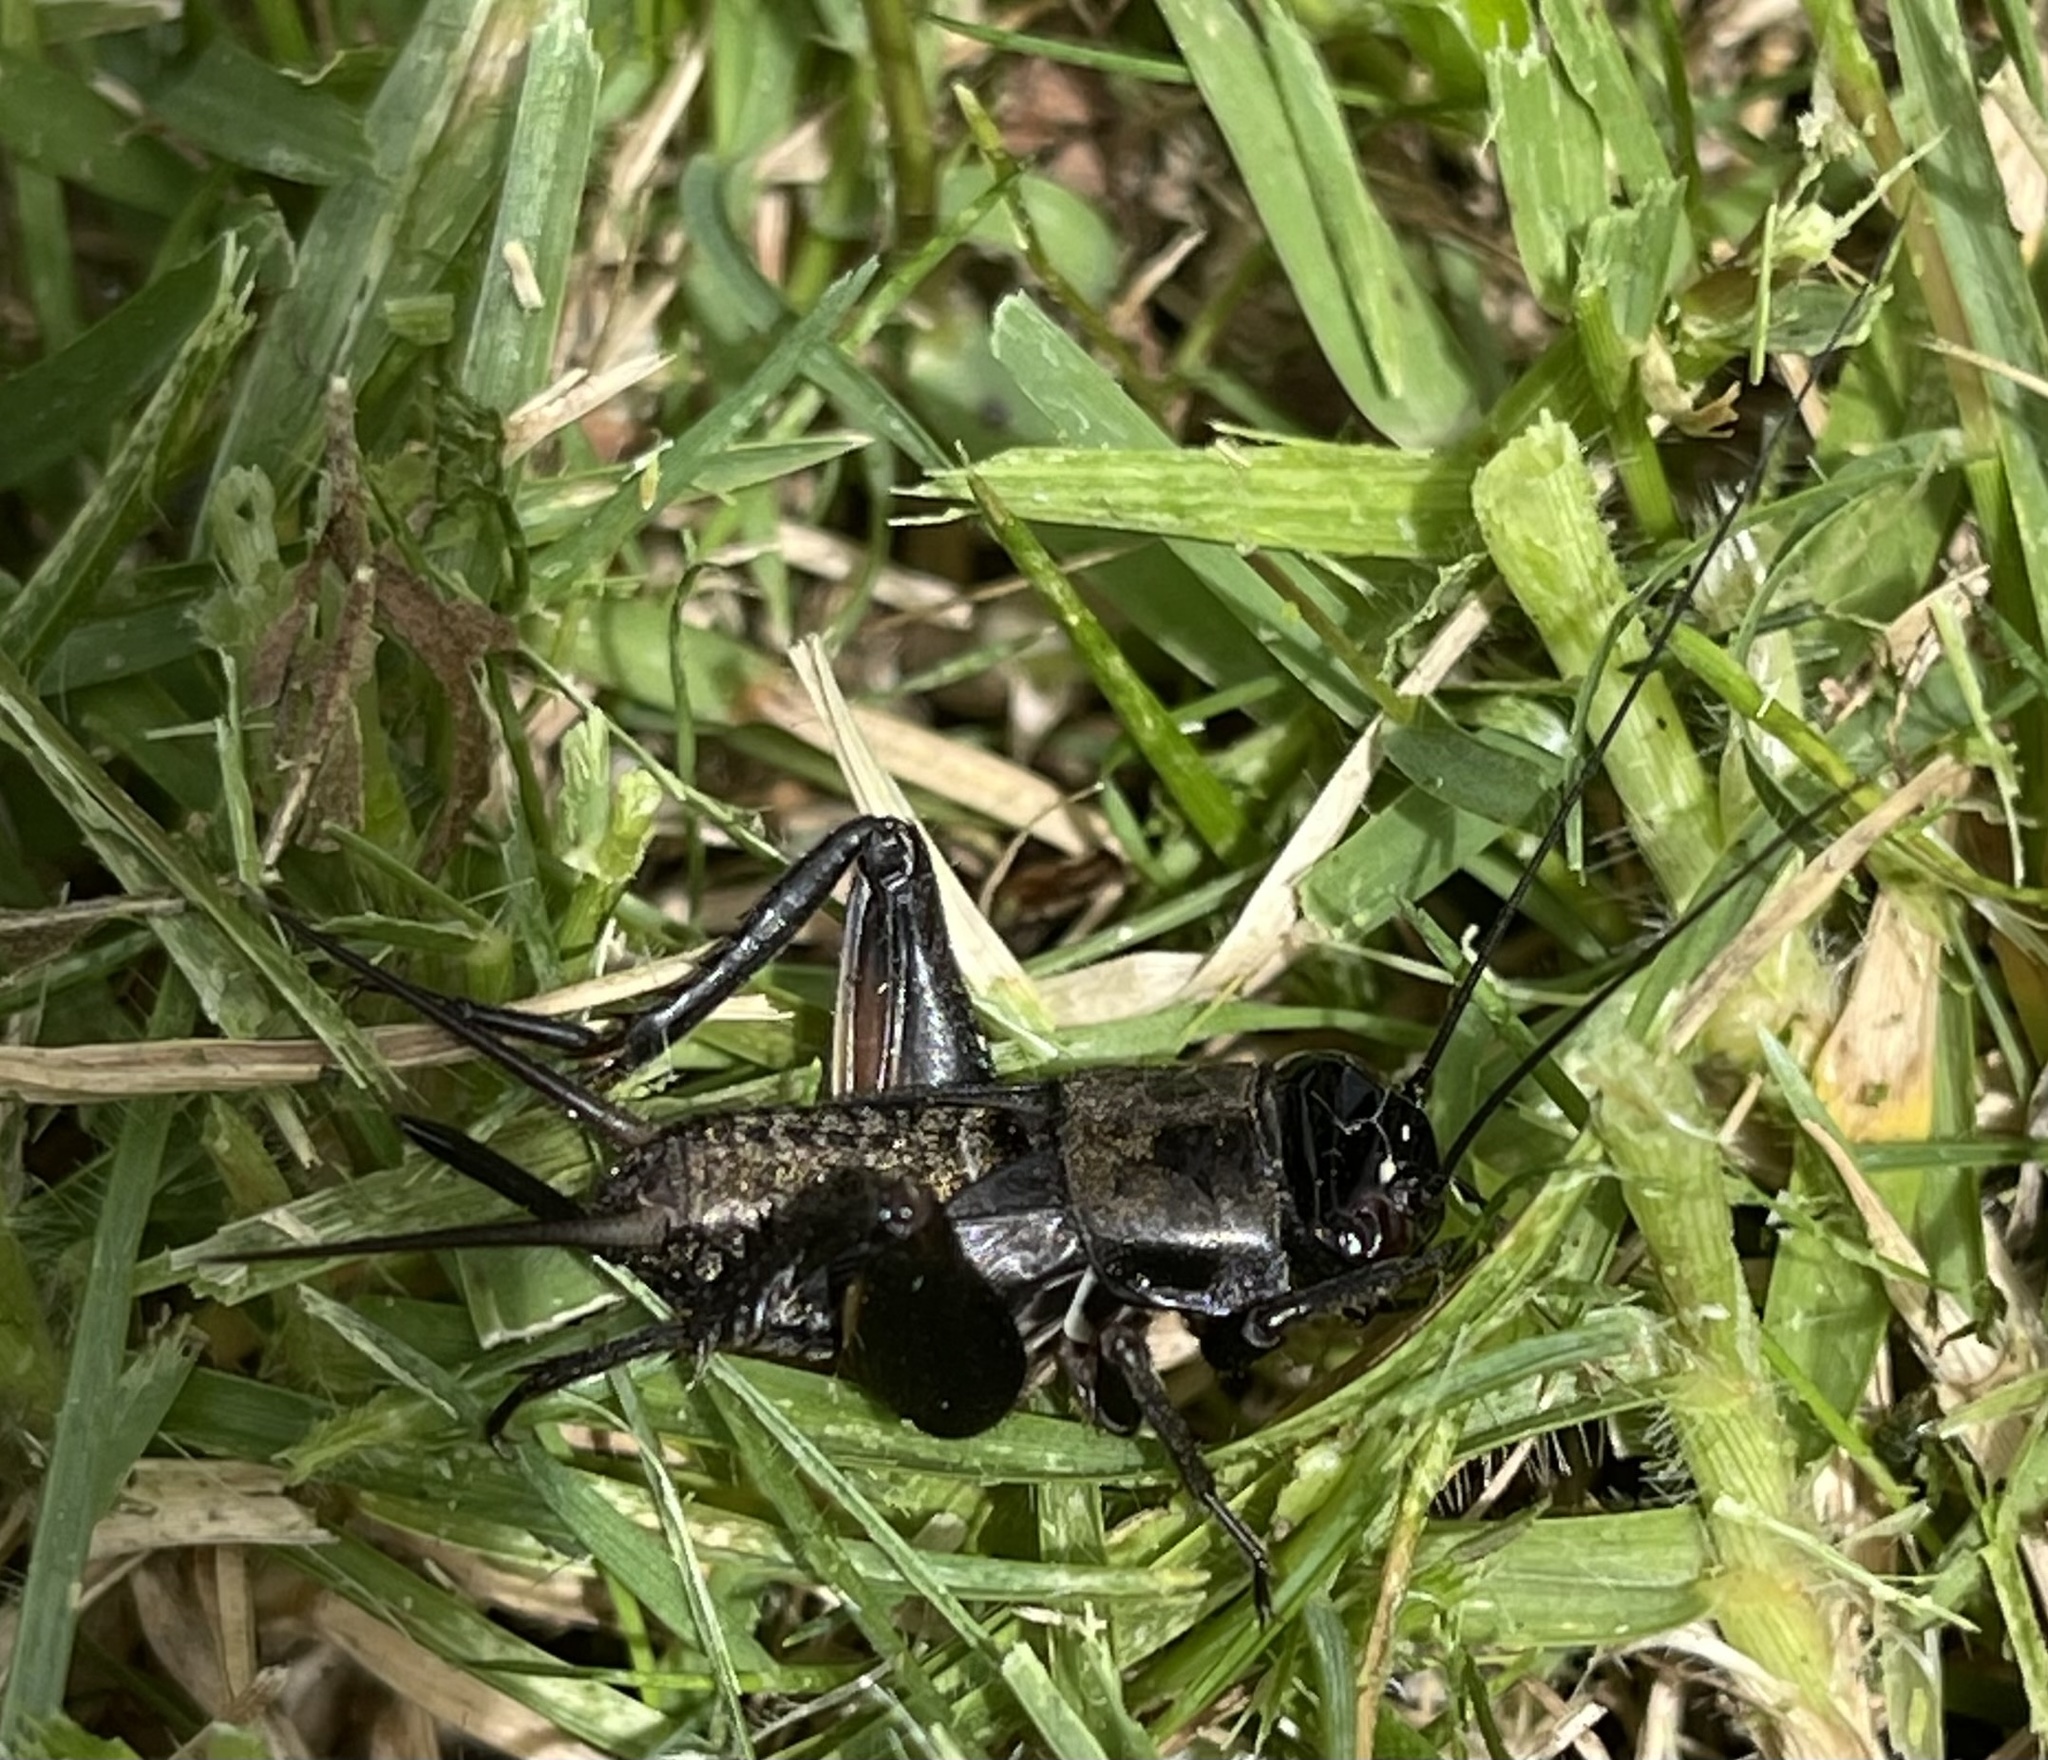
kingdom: Animalia
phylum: Arthropoda
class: Insecta
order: Orthoptera
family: Gryllidae
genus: Teleogryllus
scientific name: Teleogryllus commodus
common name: Black field cricket
